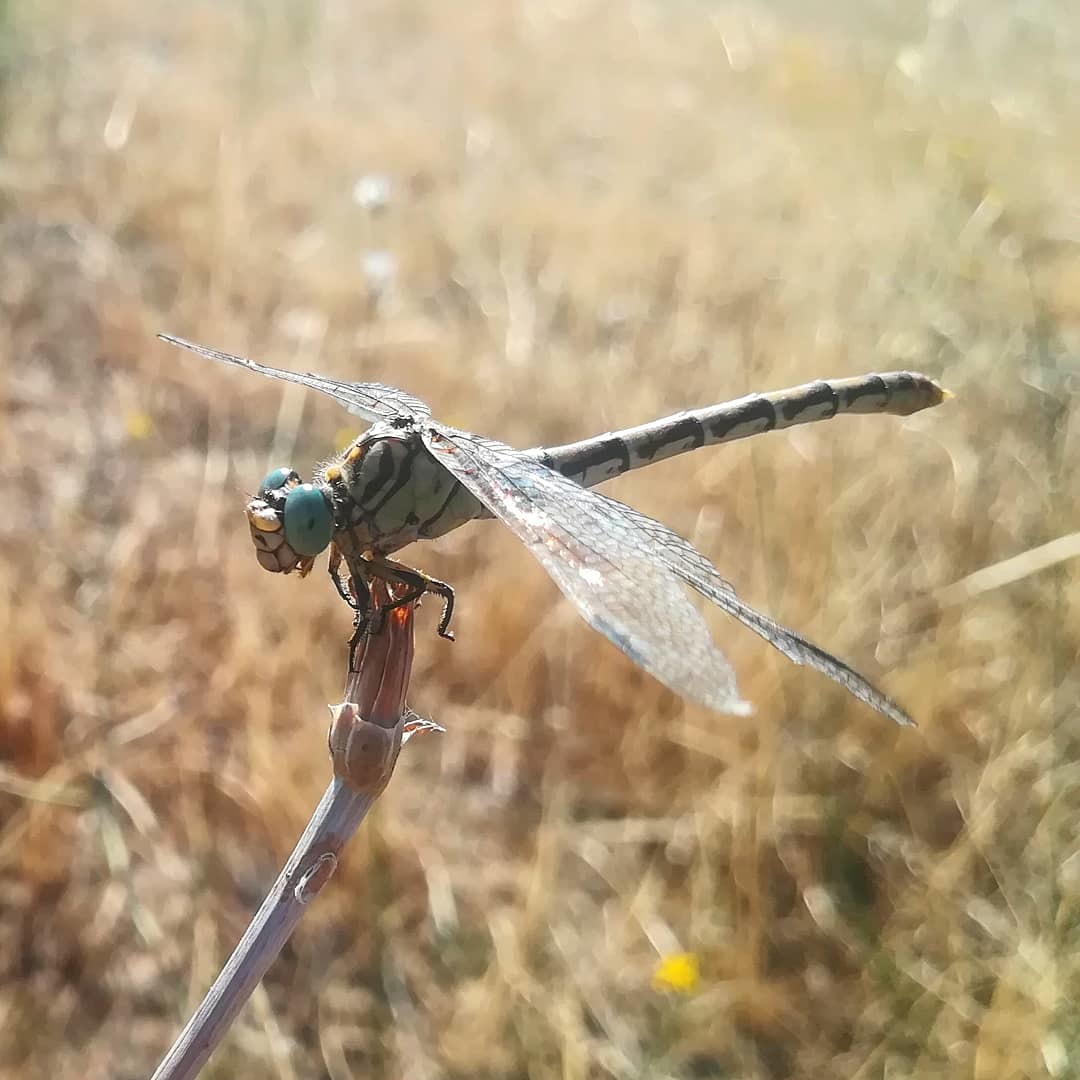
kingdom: Animalia
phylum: Arthropoda
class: Insecta
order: Odonata
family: Gomphidae
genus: Onychogomphus
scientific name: Onychogomphus forcipatus
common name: Small pincertail
